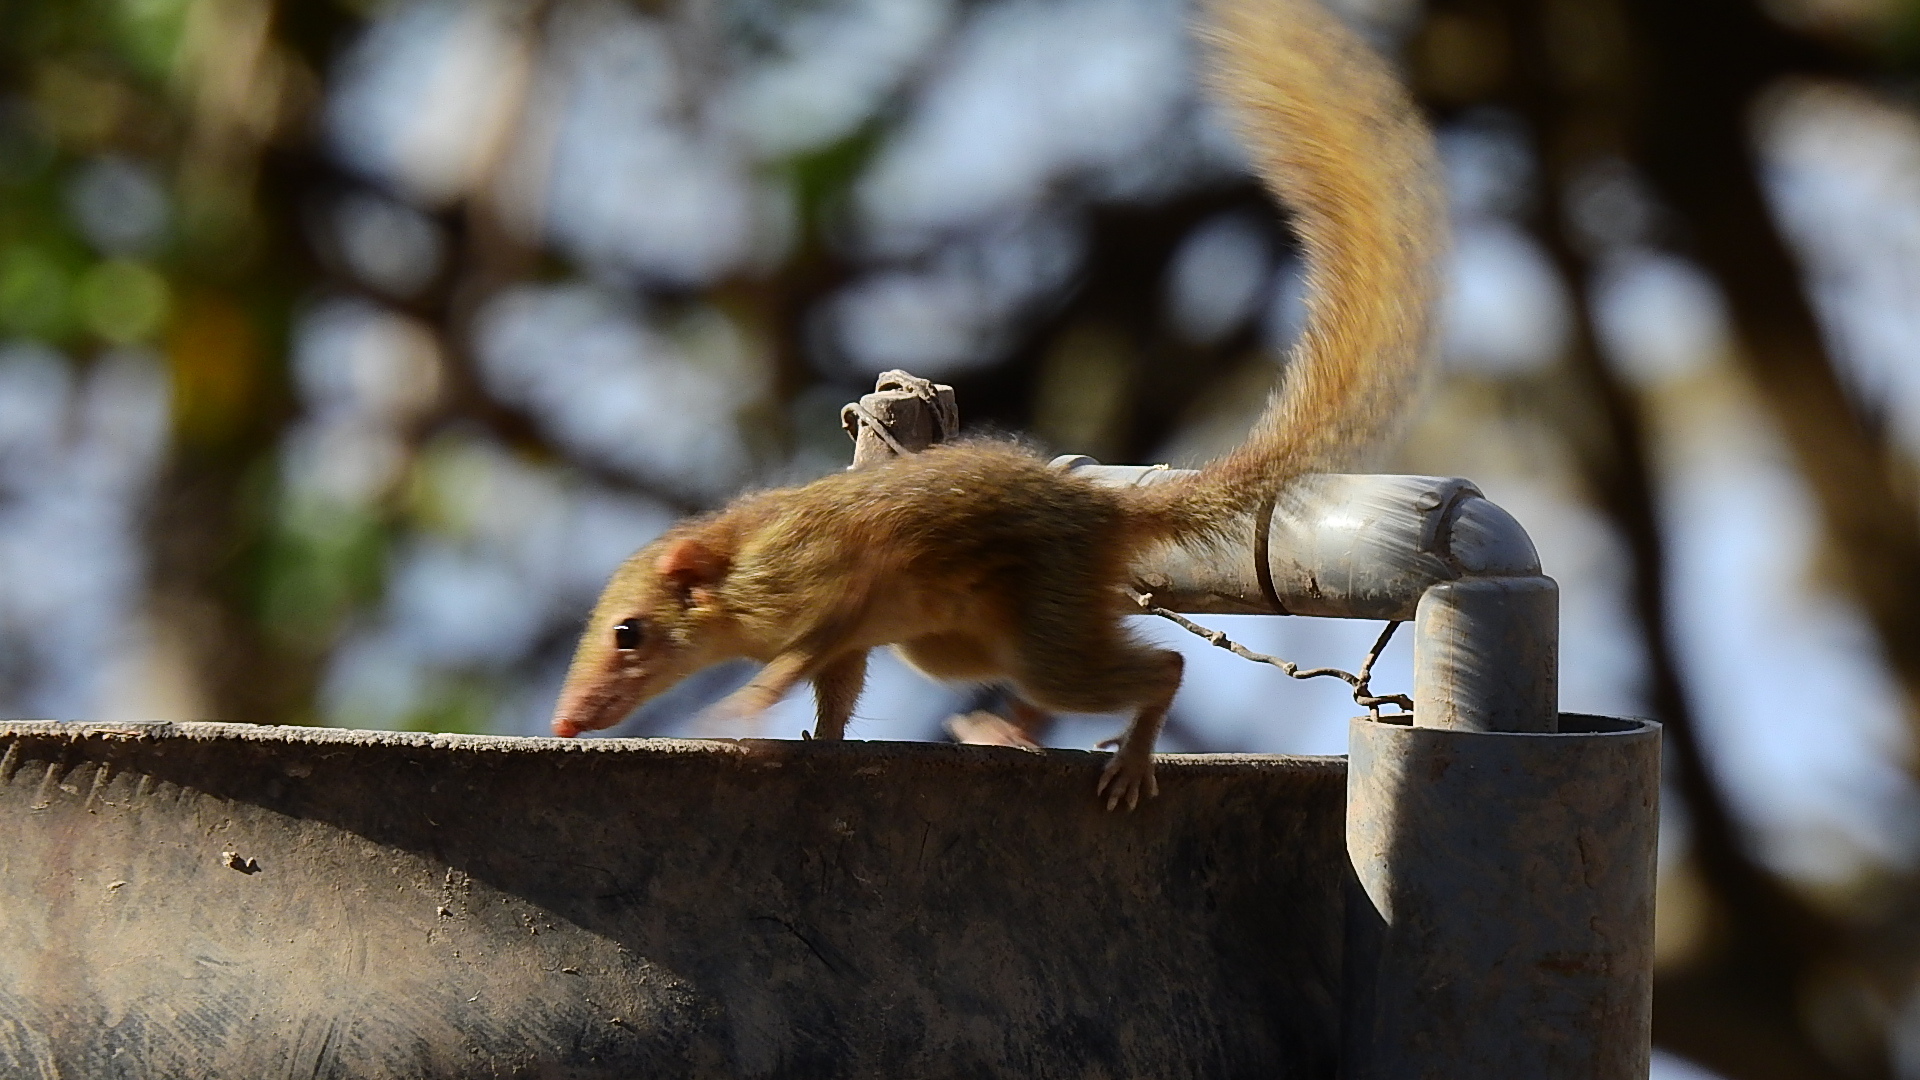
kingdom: Animalia
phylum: Chordata
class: Mammalia
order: Scandentia
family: Tupaiidae
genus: Tupaia
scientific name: Tupaia javanica
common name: Horsfield's treeshrew
